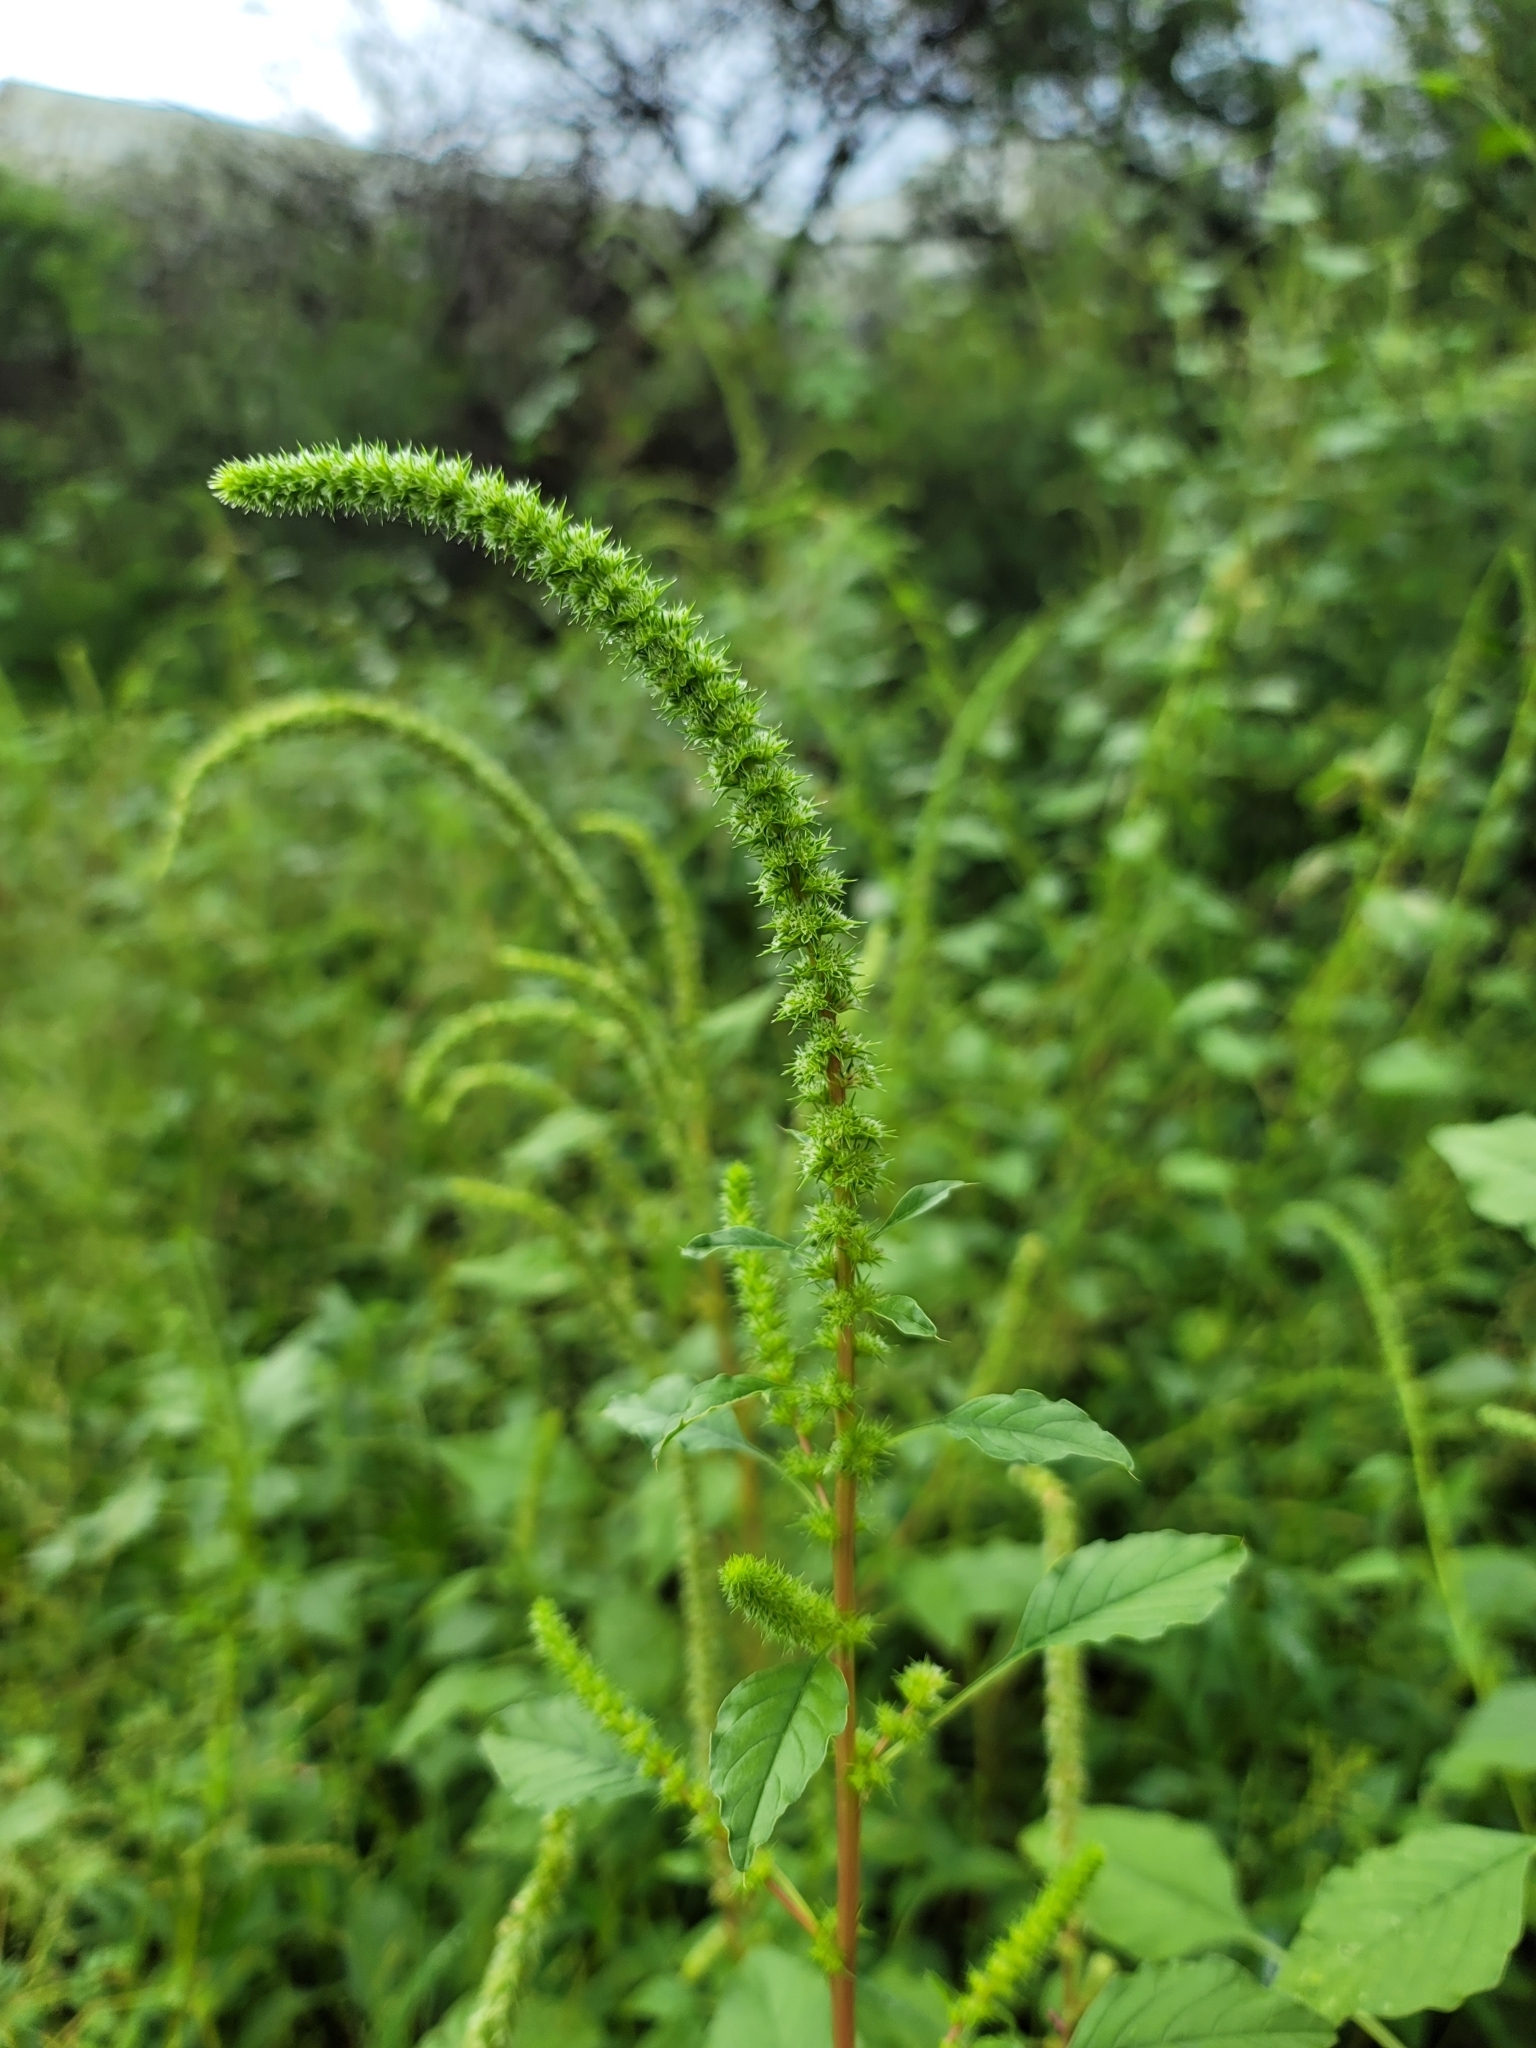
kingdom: Plantae
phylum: Tracheophyta
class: Magnoliopsida
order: Caryophyllales
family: Amaranthaceae
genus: Amaranthus
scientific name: Amaranthus palmeri
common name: Dioecious amaranth
